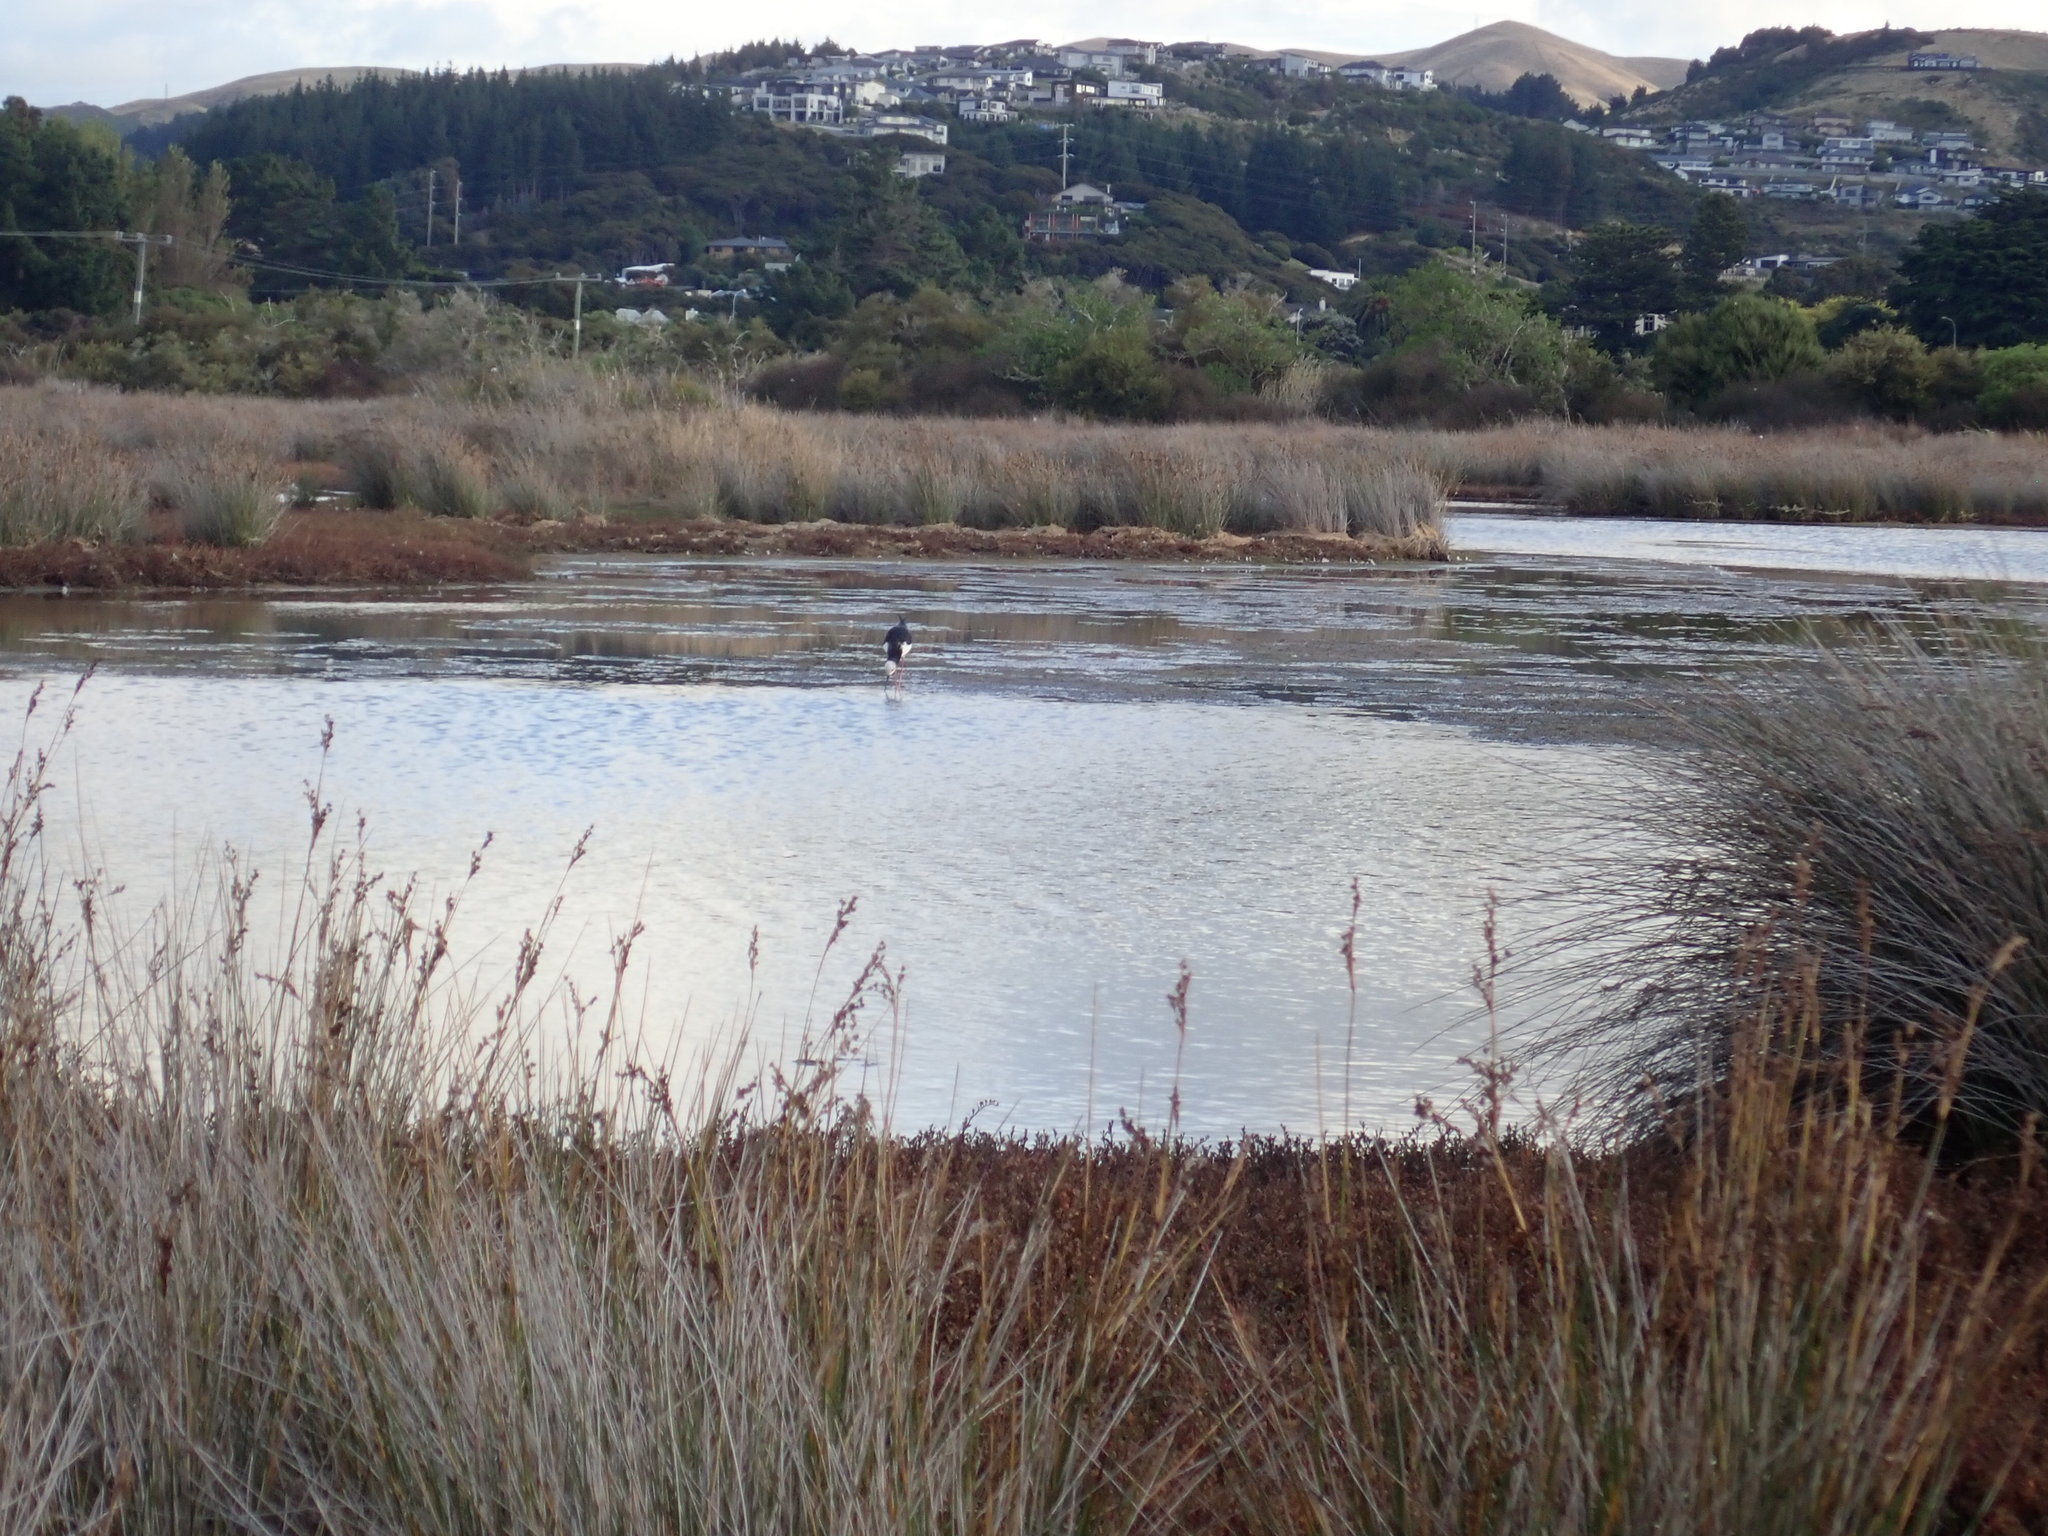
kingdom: Animalia
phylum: Chordata
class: Aves
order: Charadriiformes
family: Recurvirostridae
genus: Himantopus
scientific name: Himantopus leucocephalus
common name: White-headed stilt
